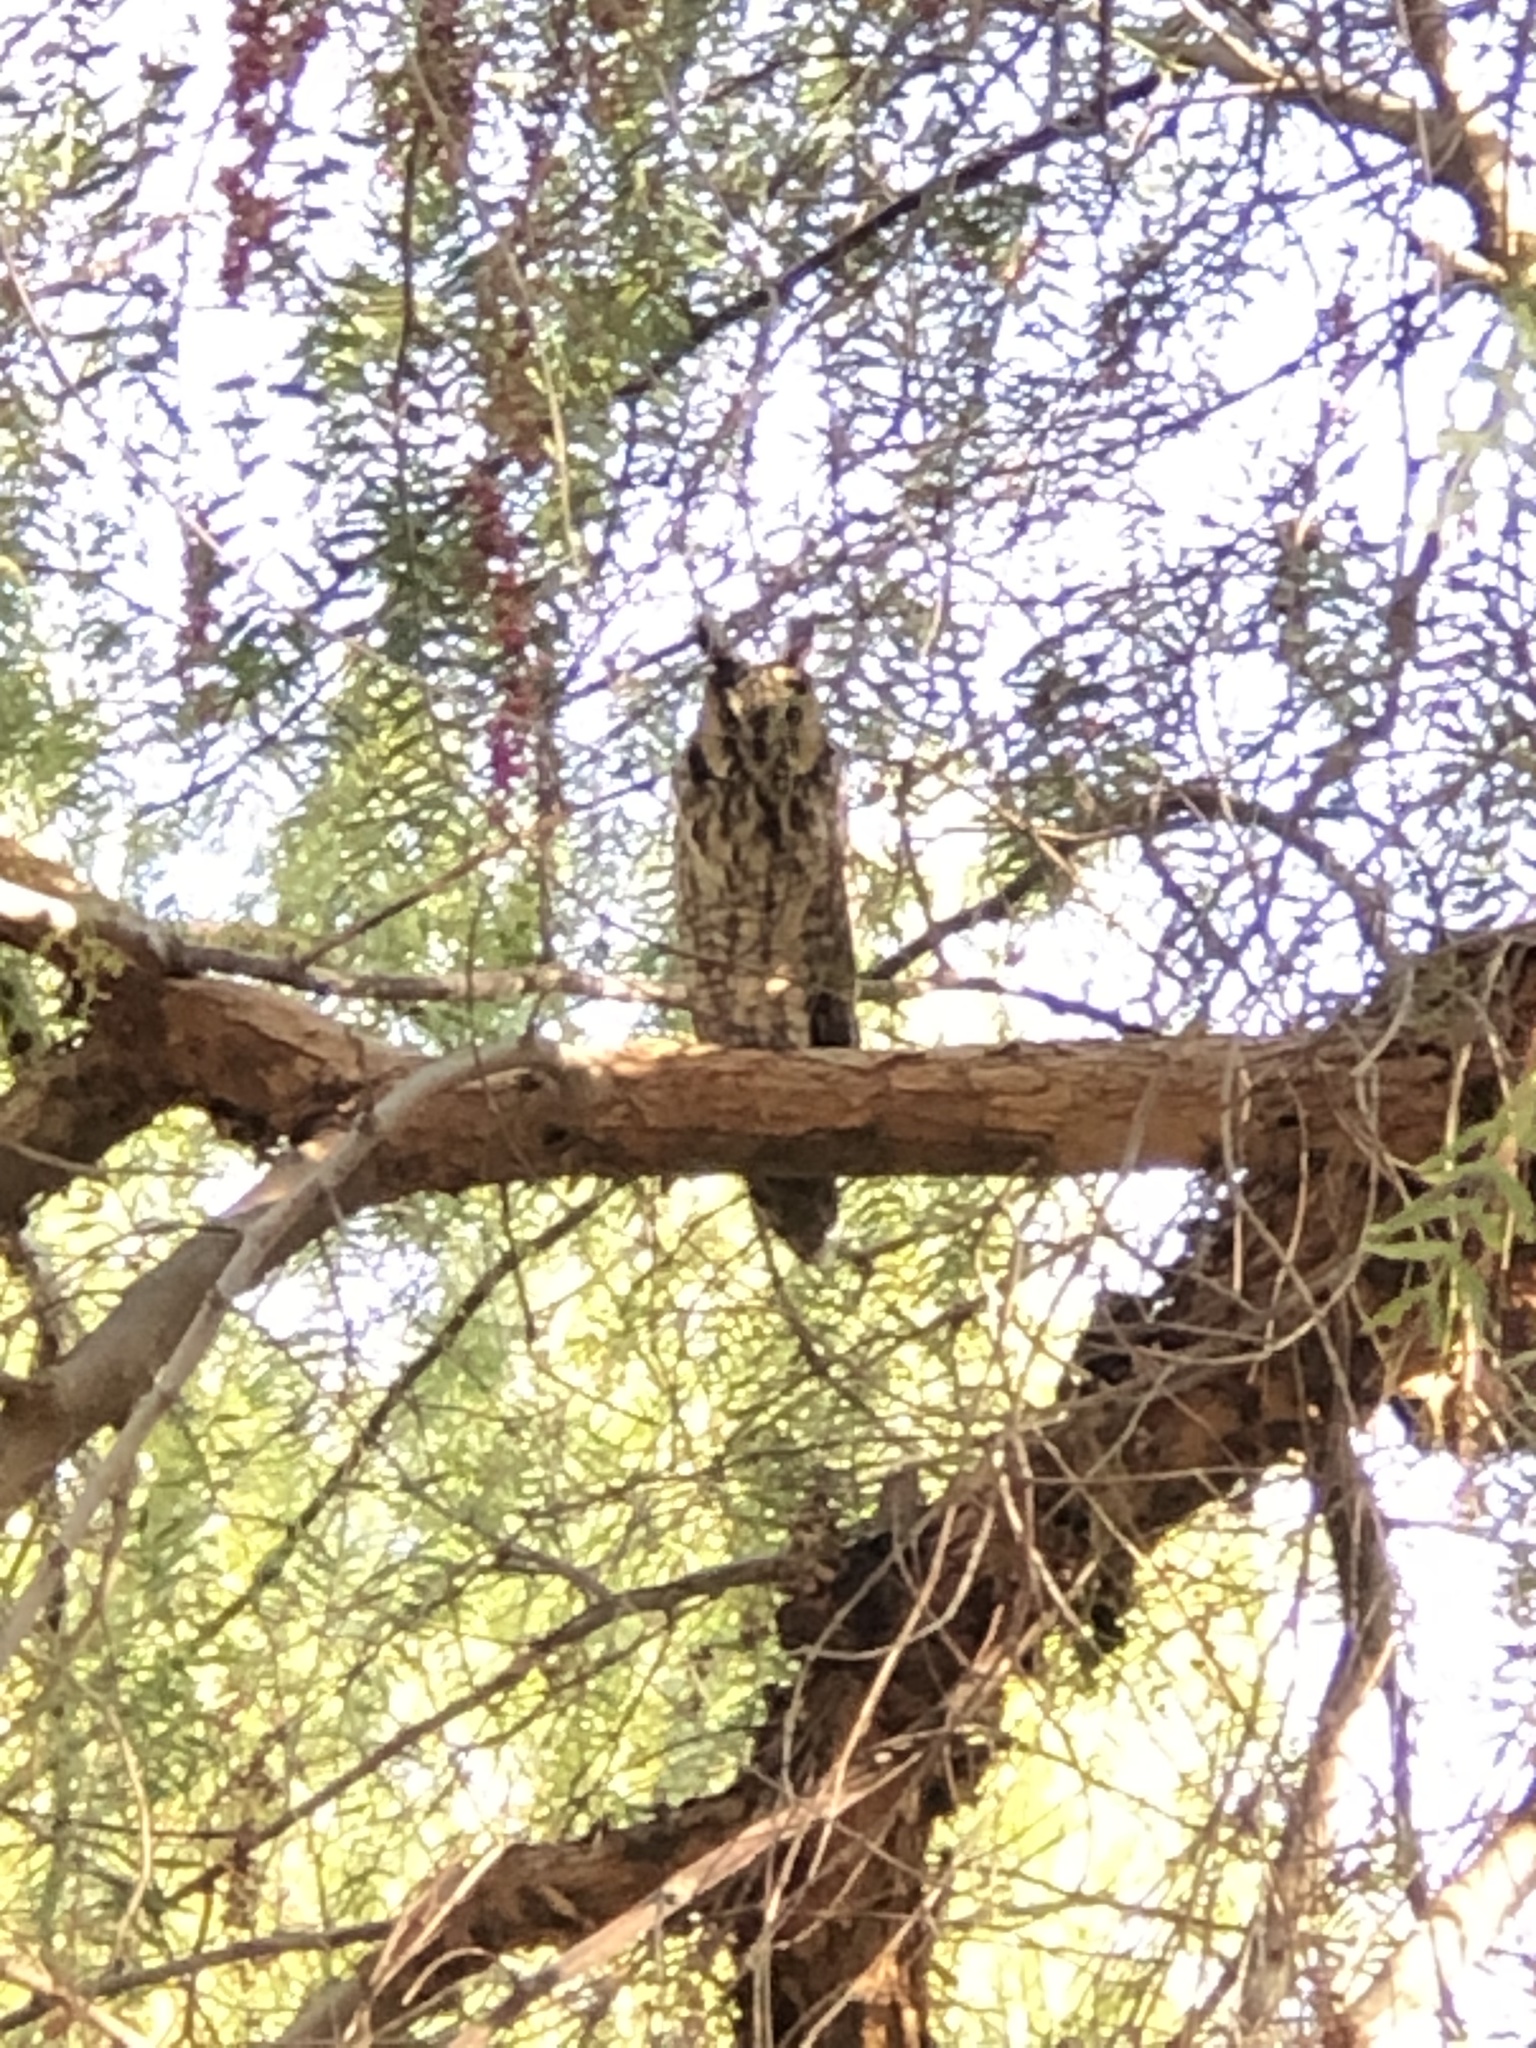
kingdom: Animalia
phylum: Chordata
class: Aves
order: Strigiformes
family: Strigidae
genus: Asio
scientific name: Asio otus
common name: Long-eared owl
